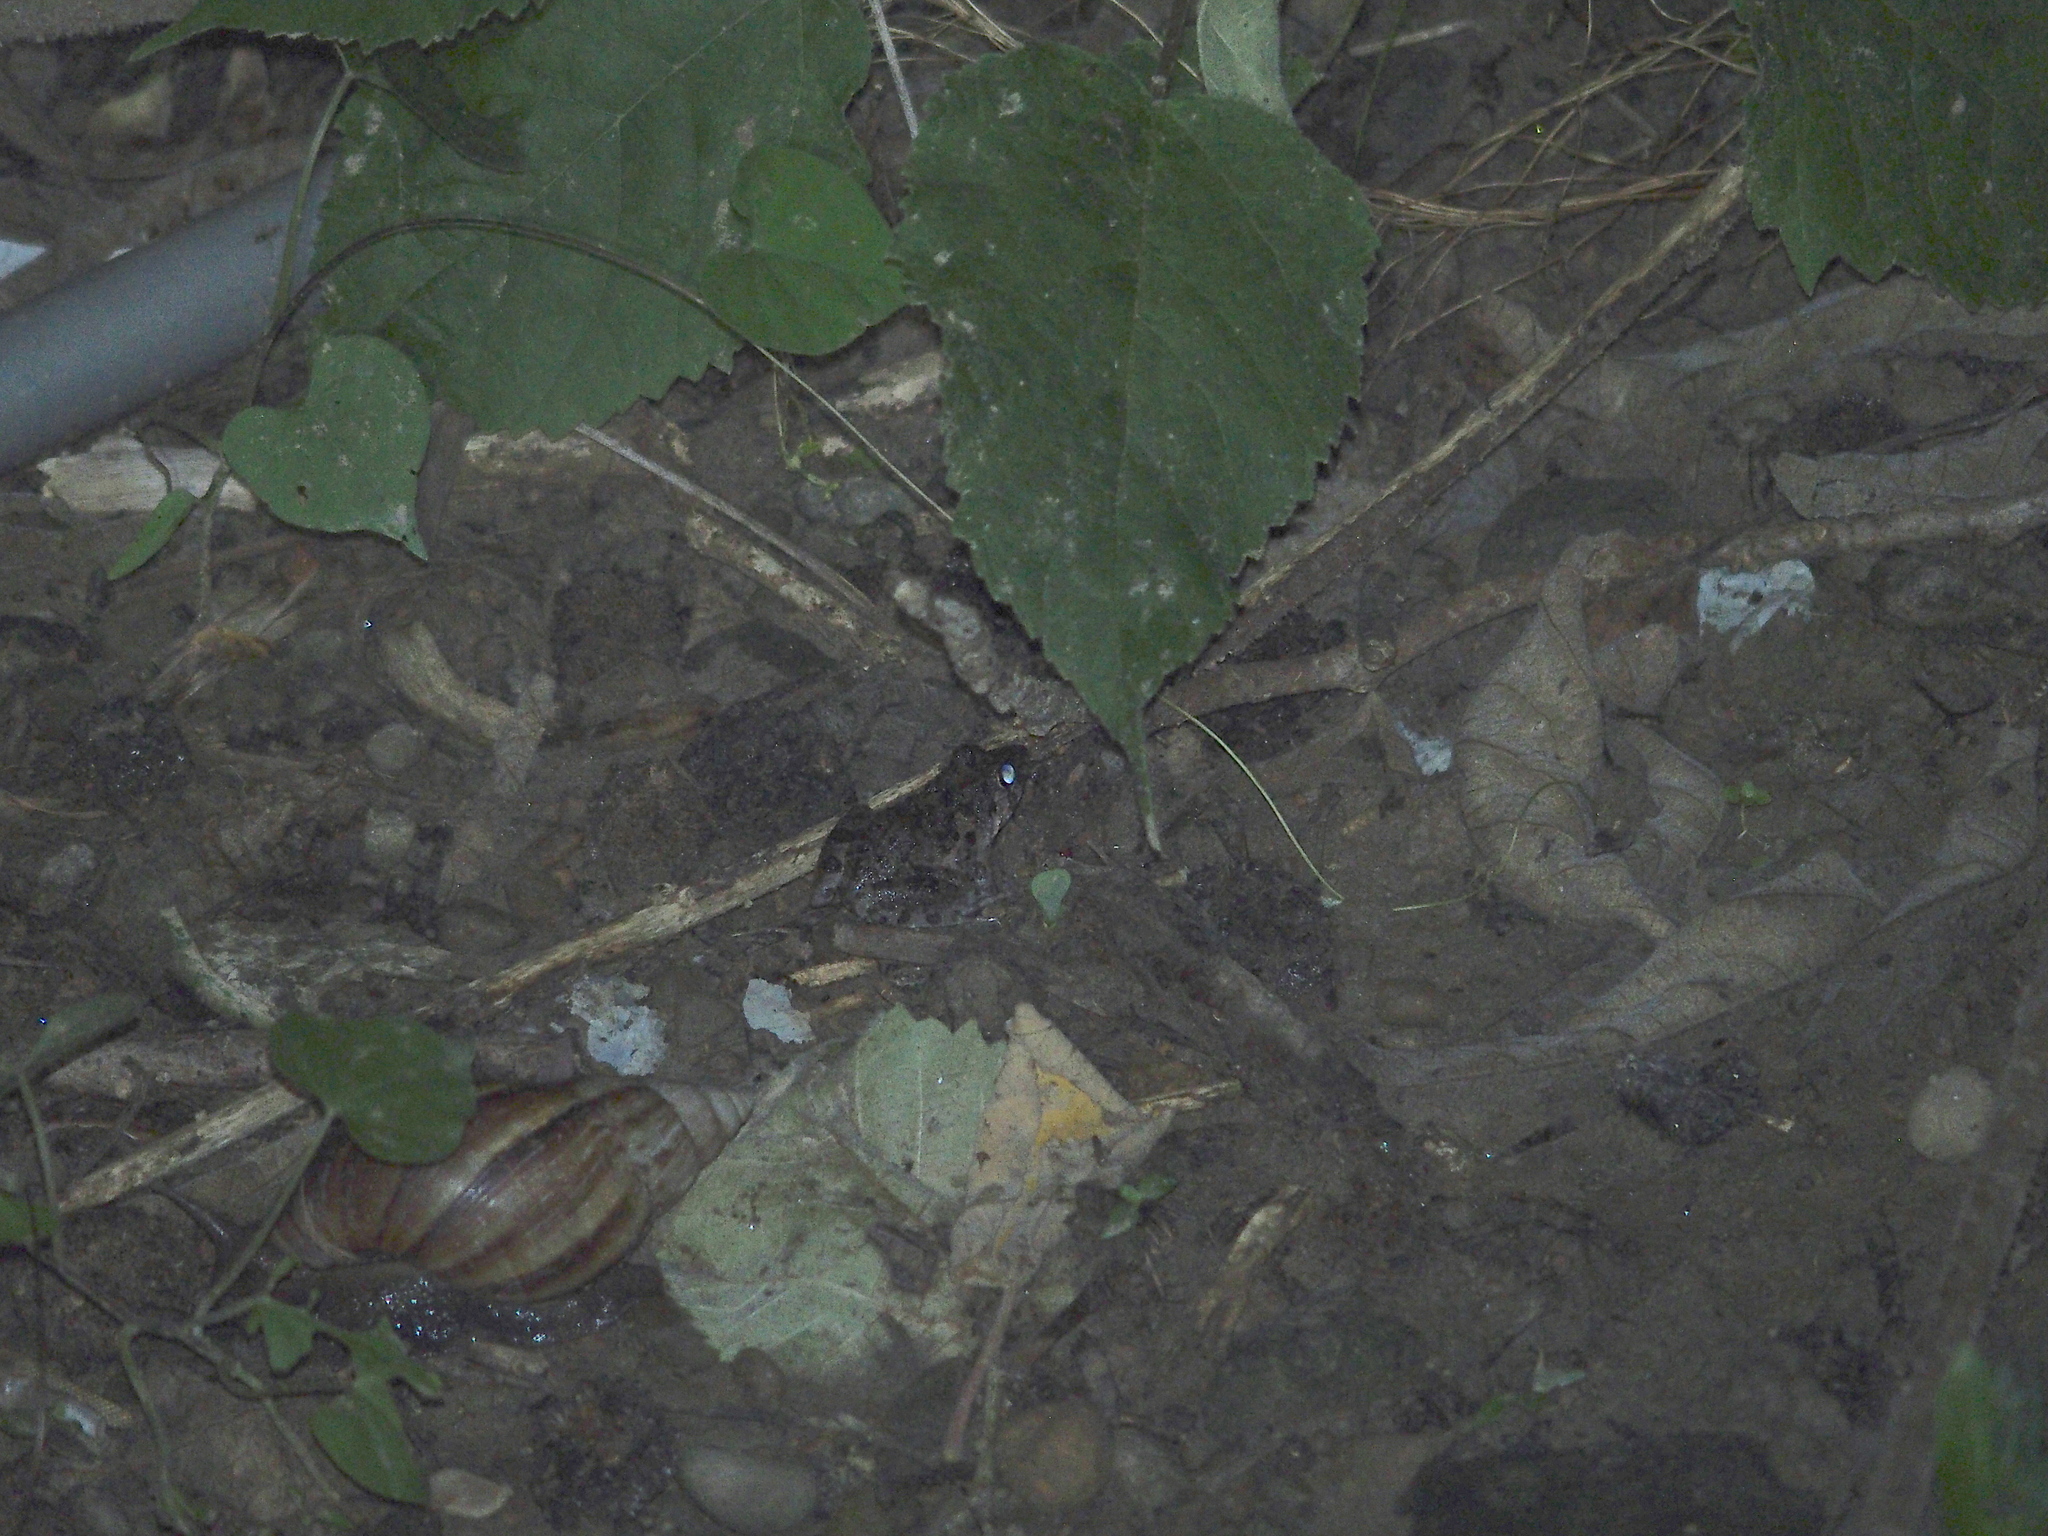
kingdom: Animalia
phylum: Chordata
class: Amphibia
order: Anura
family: Dicroglossidae
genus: Fejervarya
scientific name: Fejervarya limnocharis
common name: Asian grass frog/common pond frog/field frog/grass frog/indian rice frog
